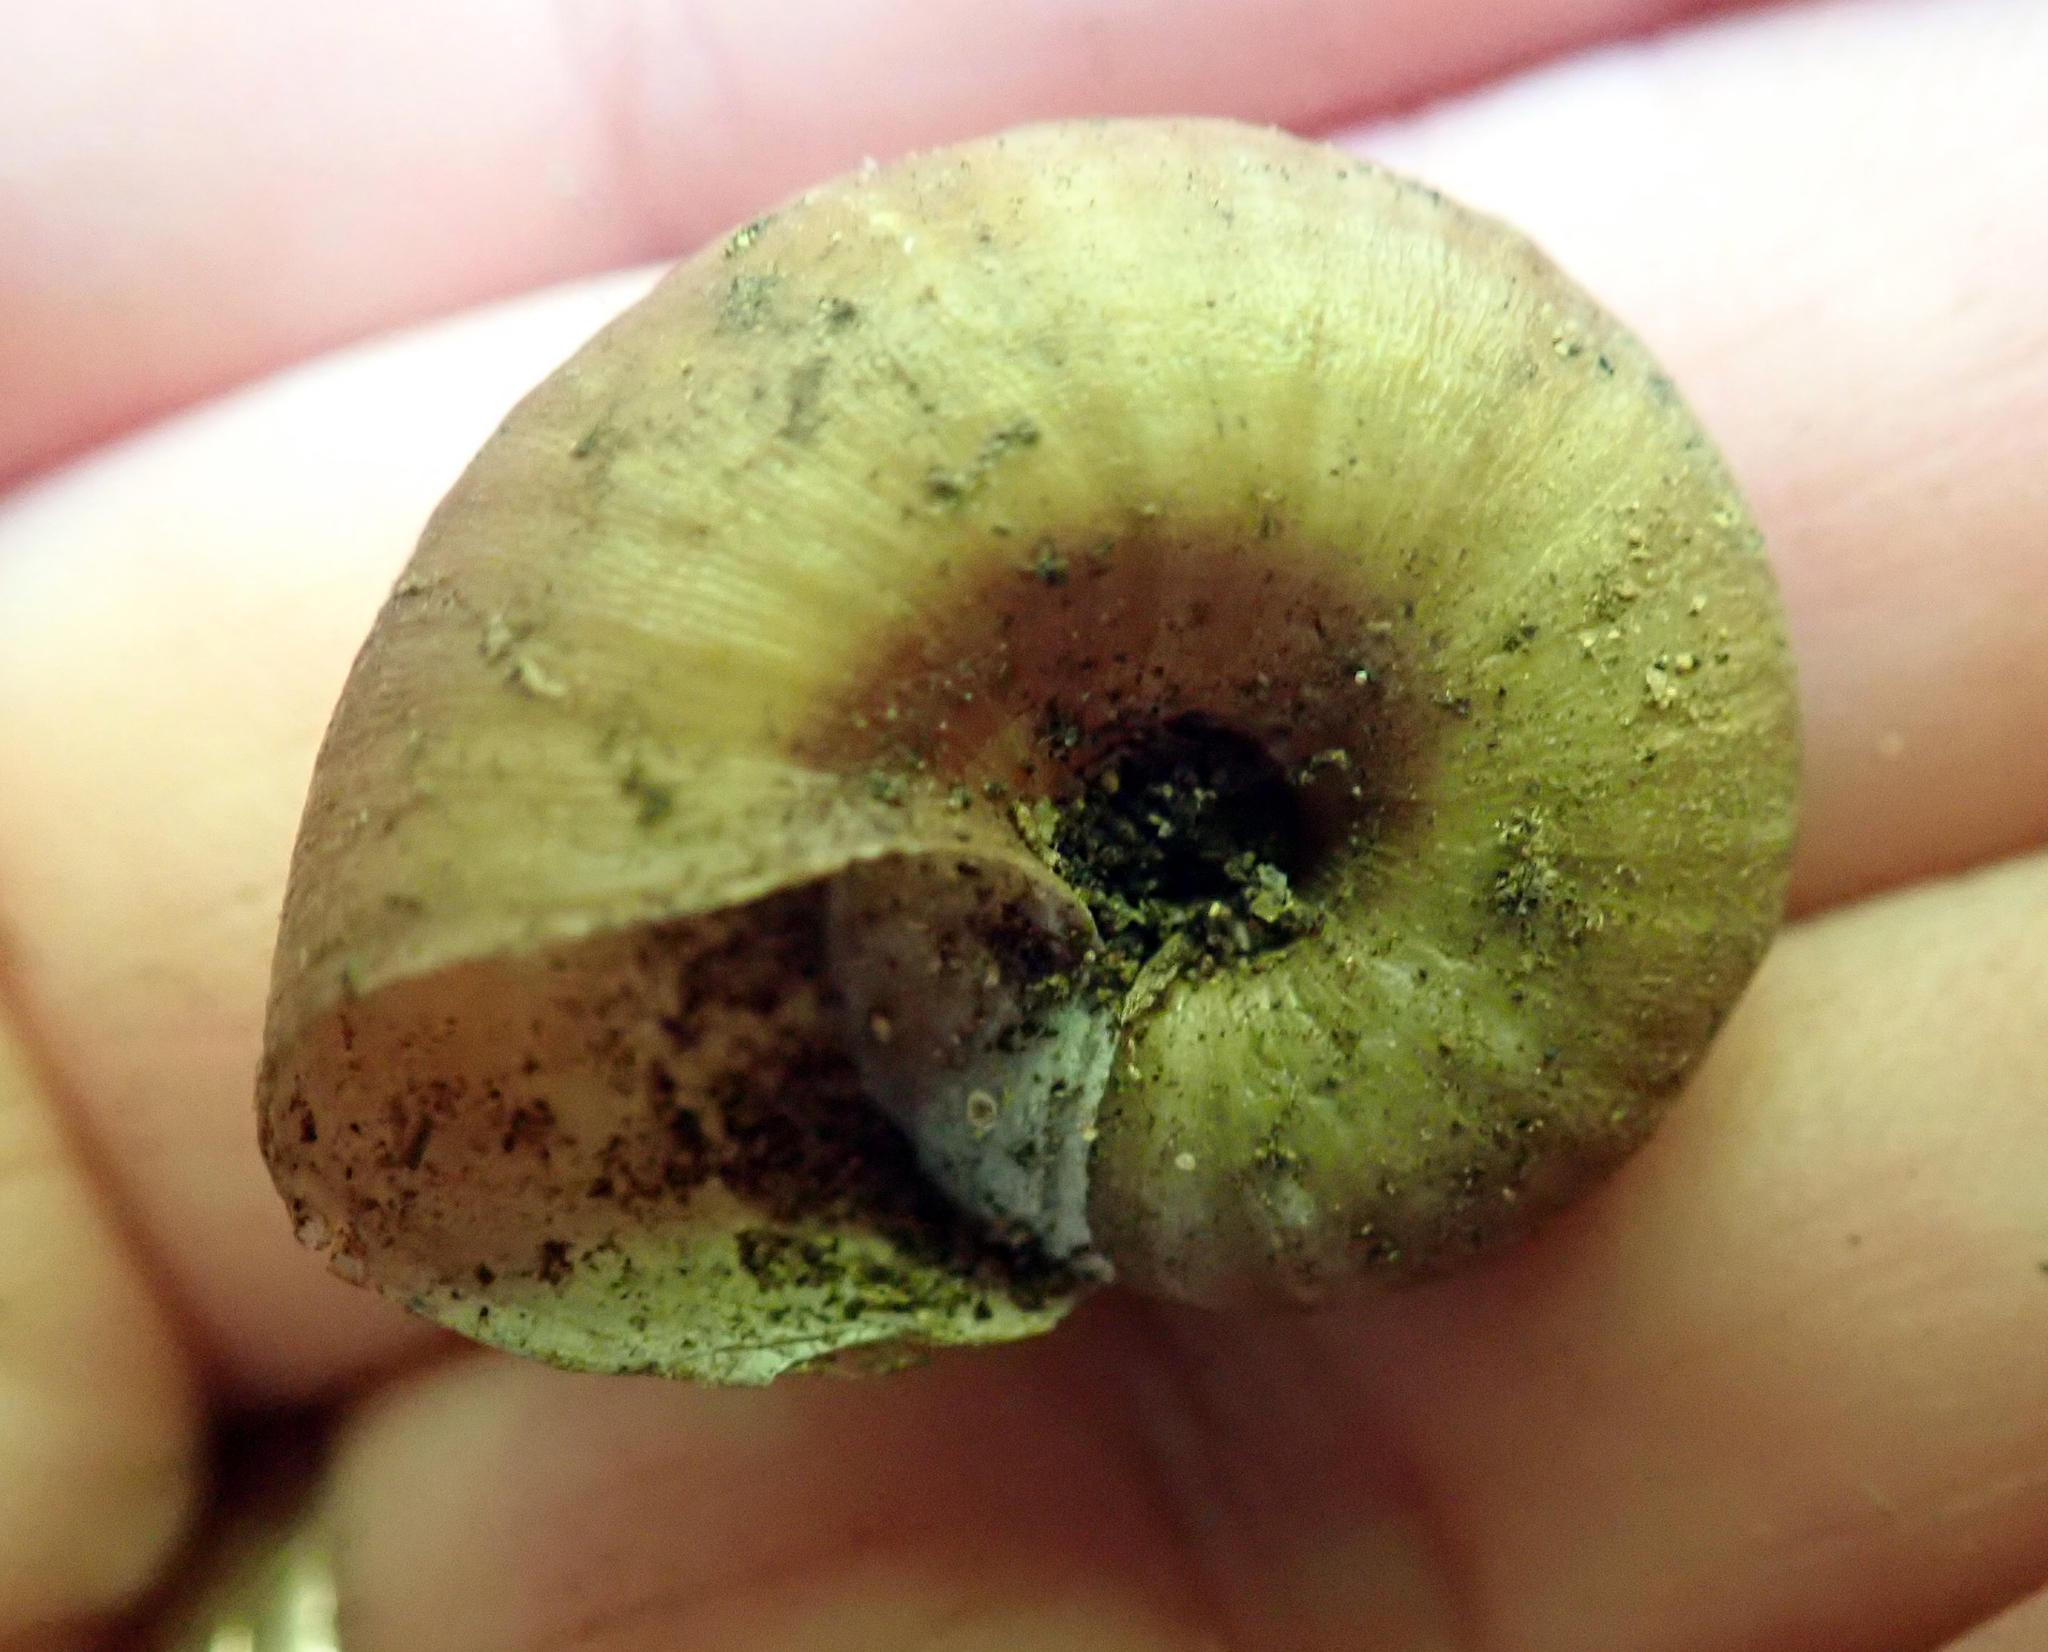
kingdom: Animalia
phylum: Mollusca
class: Gastropoda
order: Stylommatophora
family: Rhytididae
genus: Rhytida
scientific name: Rhytida greenwoodi
